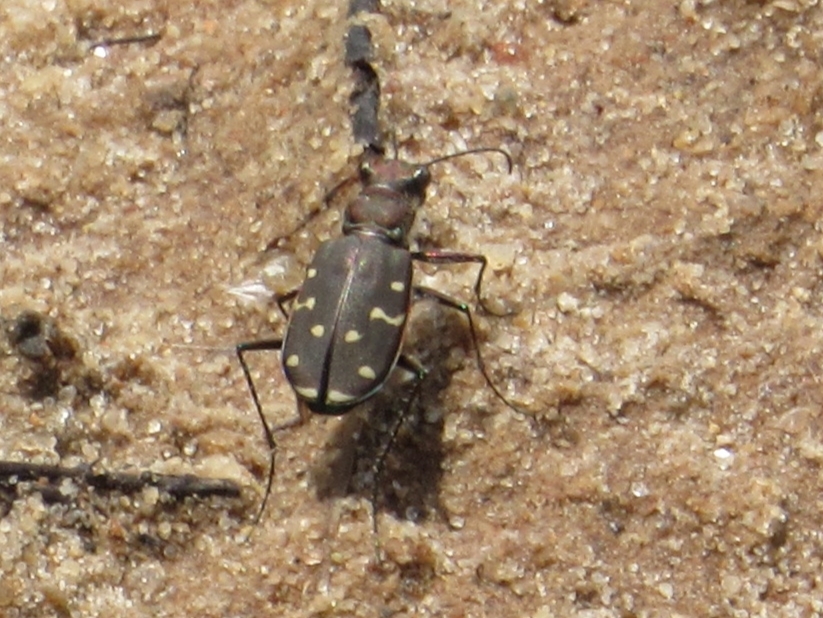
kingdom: Animalia
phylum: Arthropoda
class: Insecta
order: Coleoptera
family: Carabidae
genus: Cicindela
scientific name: Cicindela duodecimguttata
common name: Twelve-spotted tiger beetle
